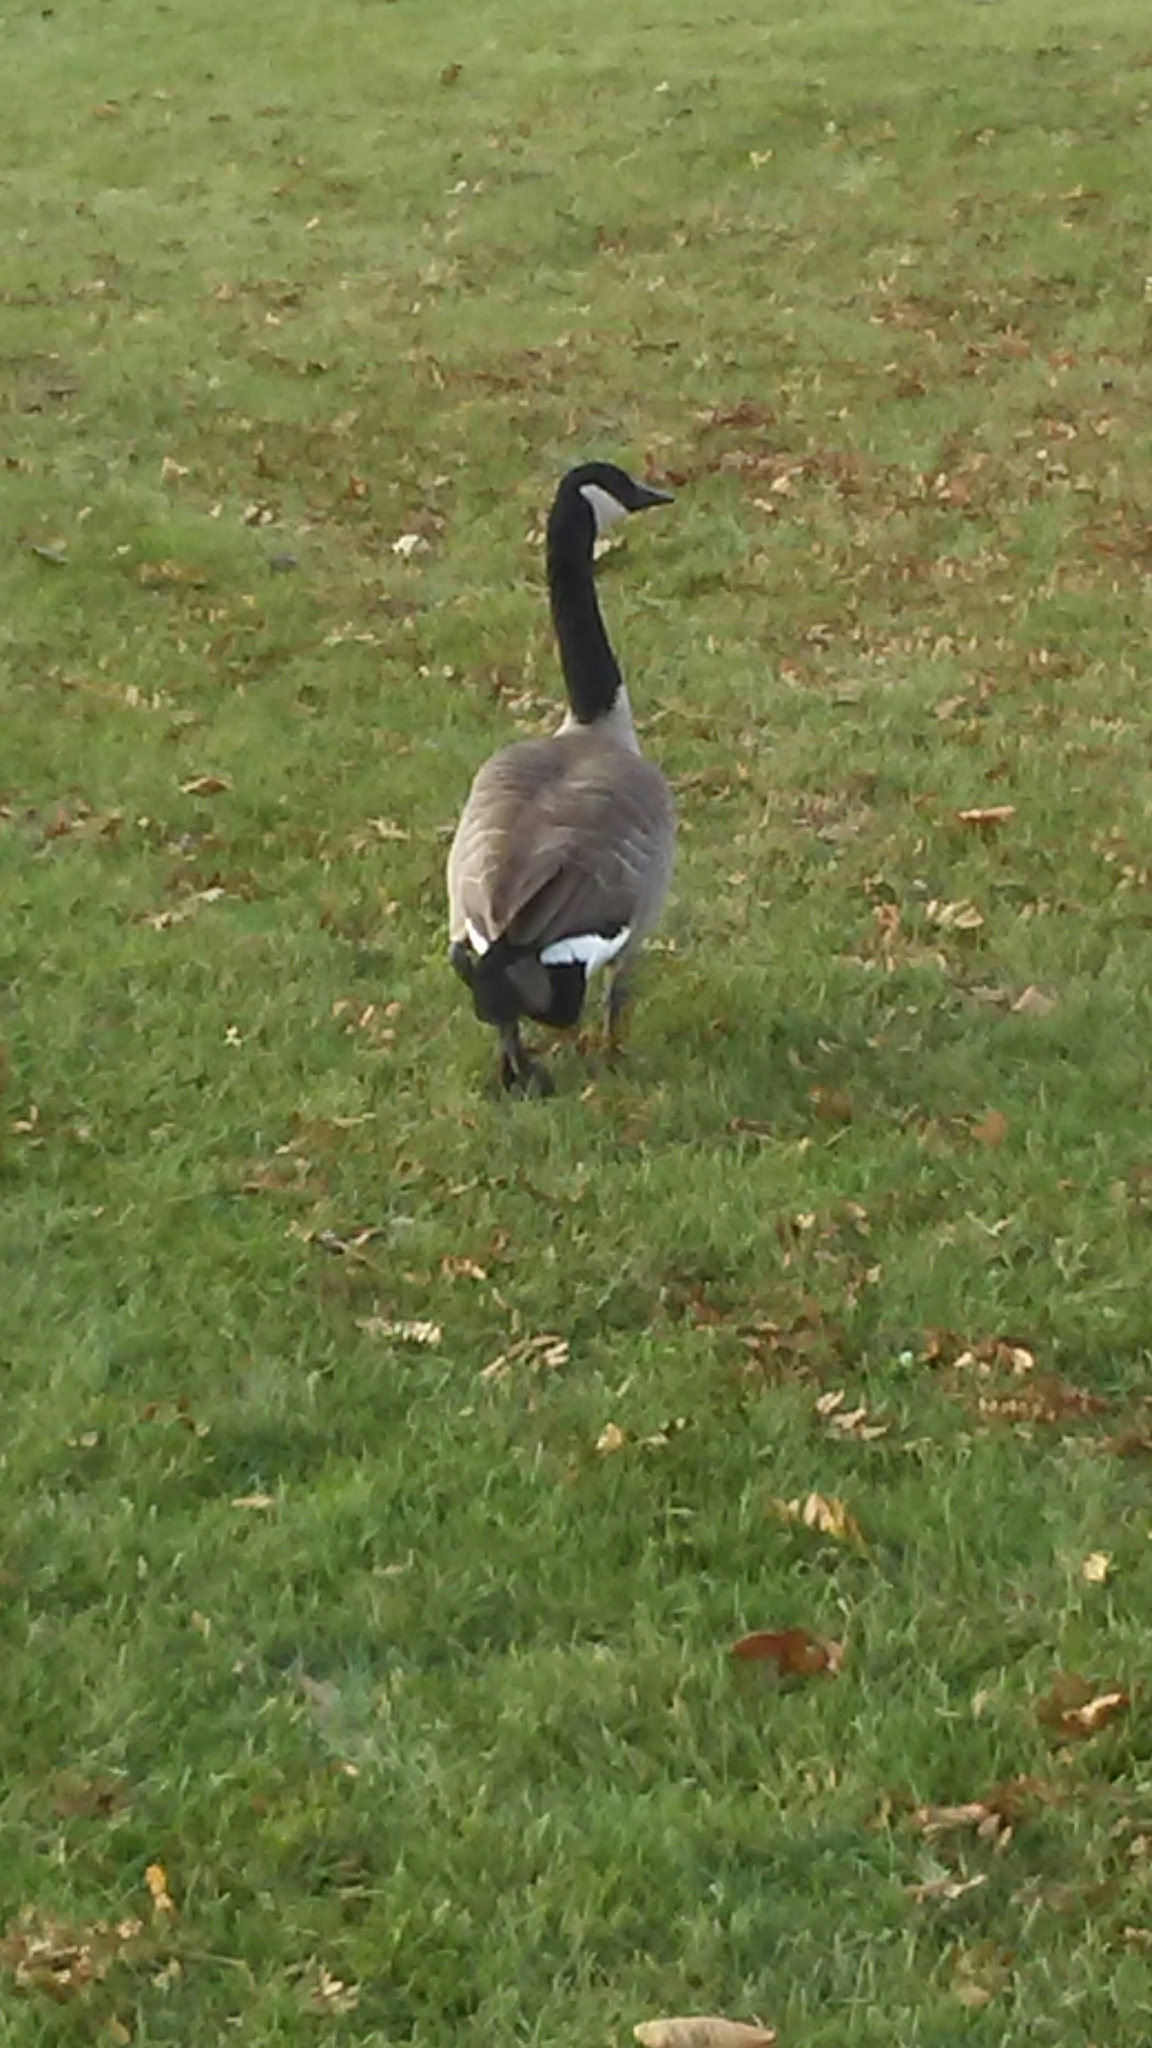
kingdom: Animalia
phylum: Chordata
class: Aves
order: Anseriformes
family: Anatidae
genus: Branta
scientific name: Branta canadensis
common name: Canada goose
